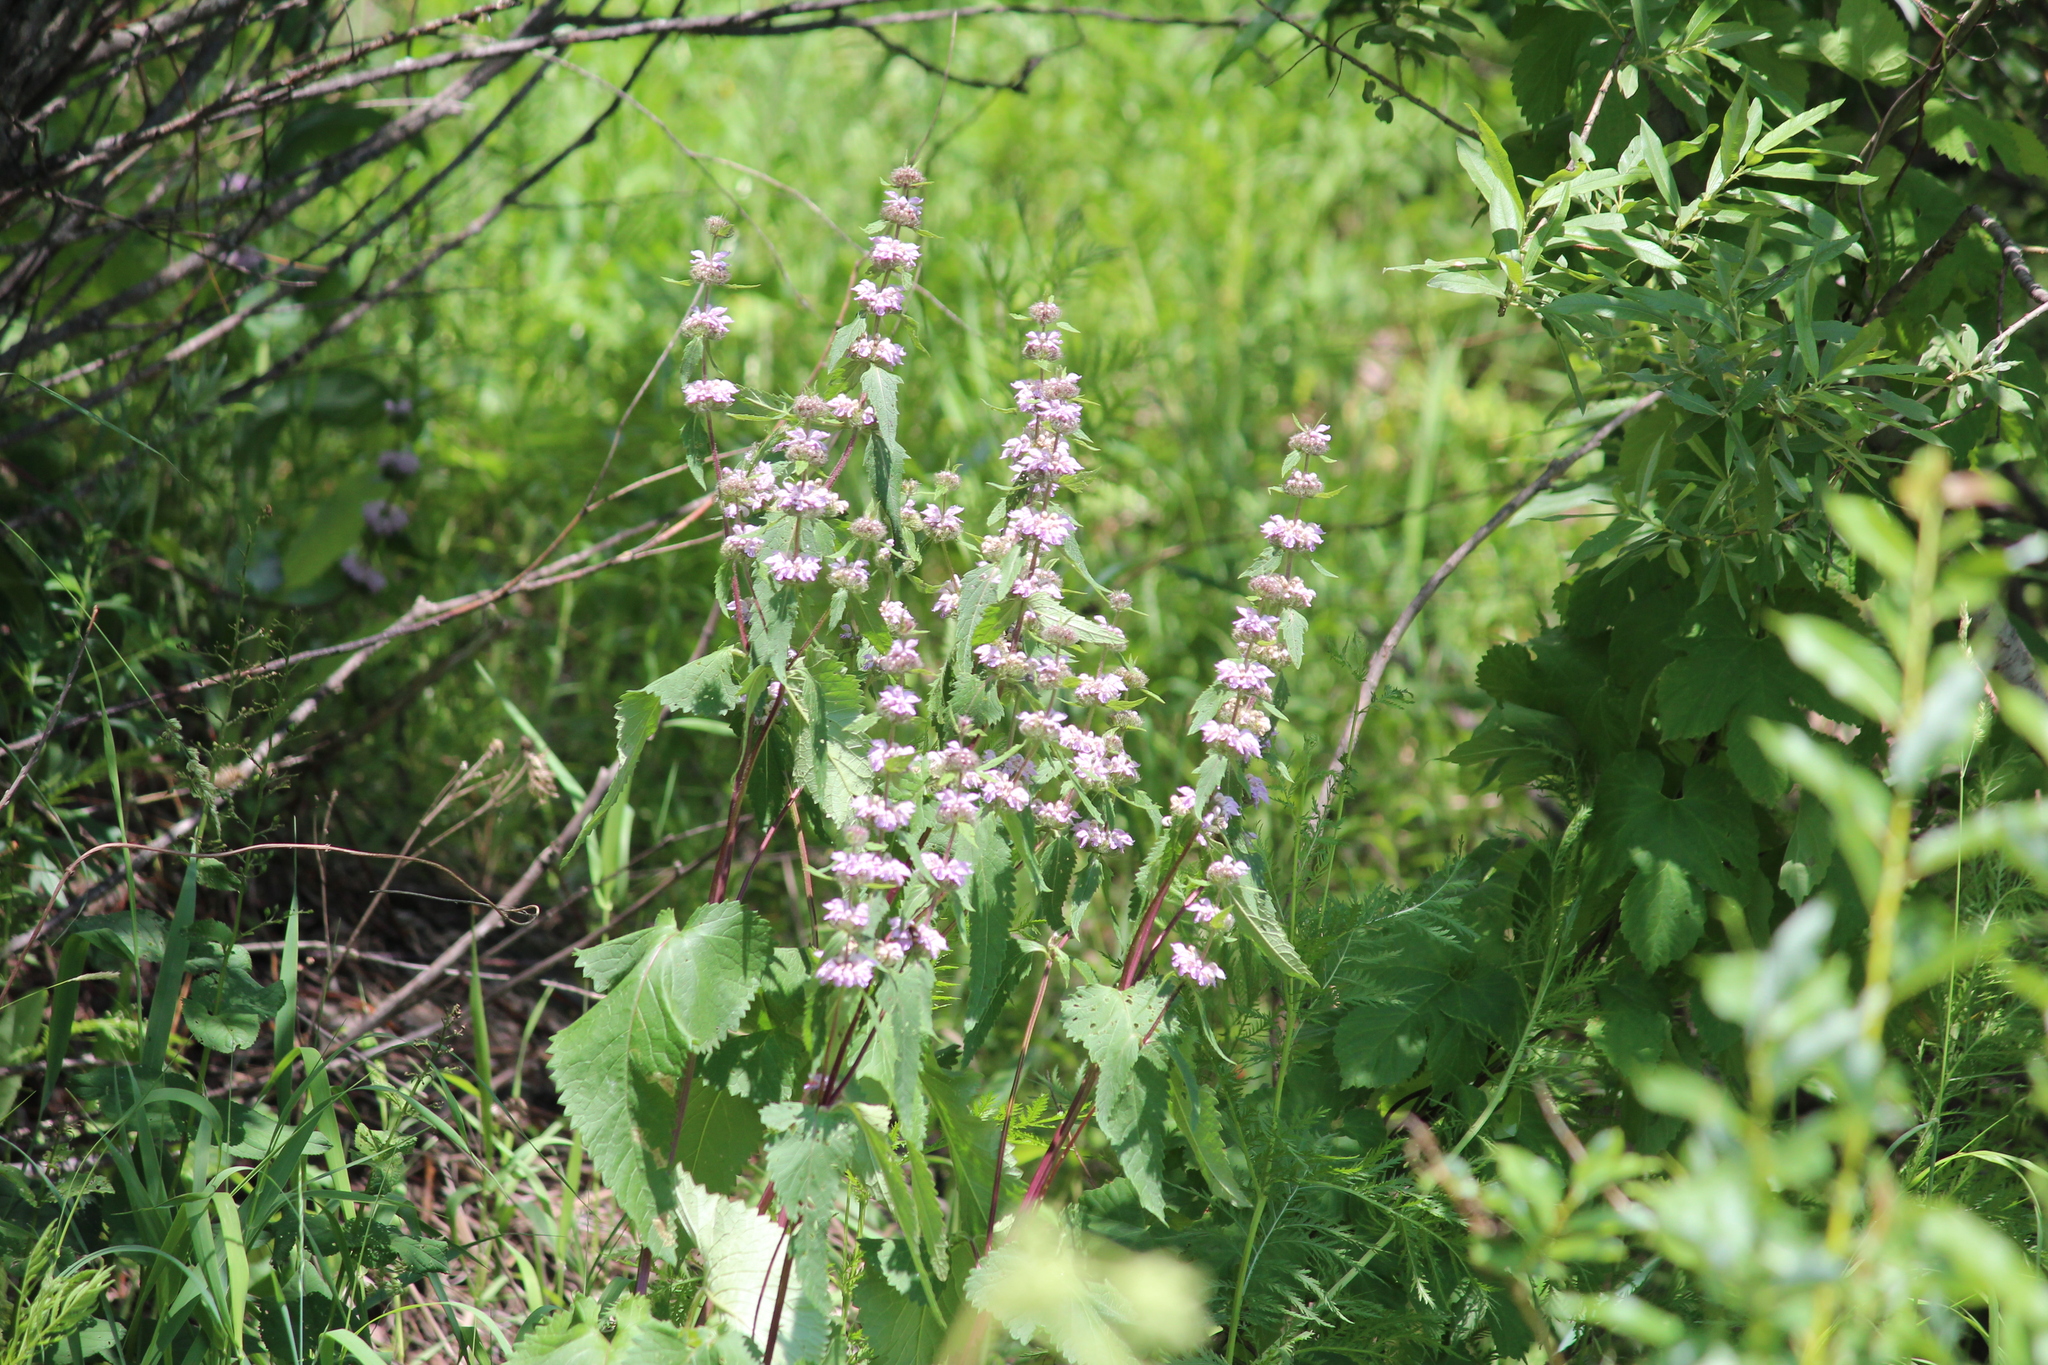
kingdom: Plantae
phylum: Tracheophyta
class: Magnoliopsida
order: Lamiales
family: Lamiaceae
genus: Phlomoides
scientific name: Phlomoides tuberosa
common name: Tuberous jerusalem sage
